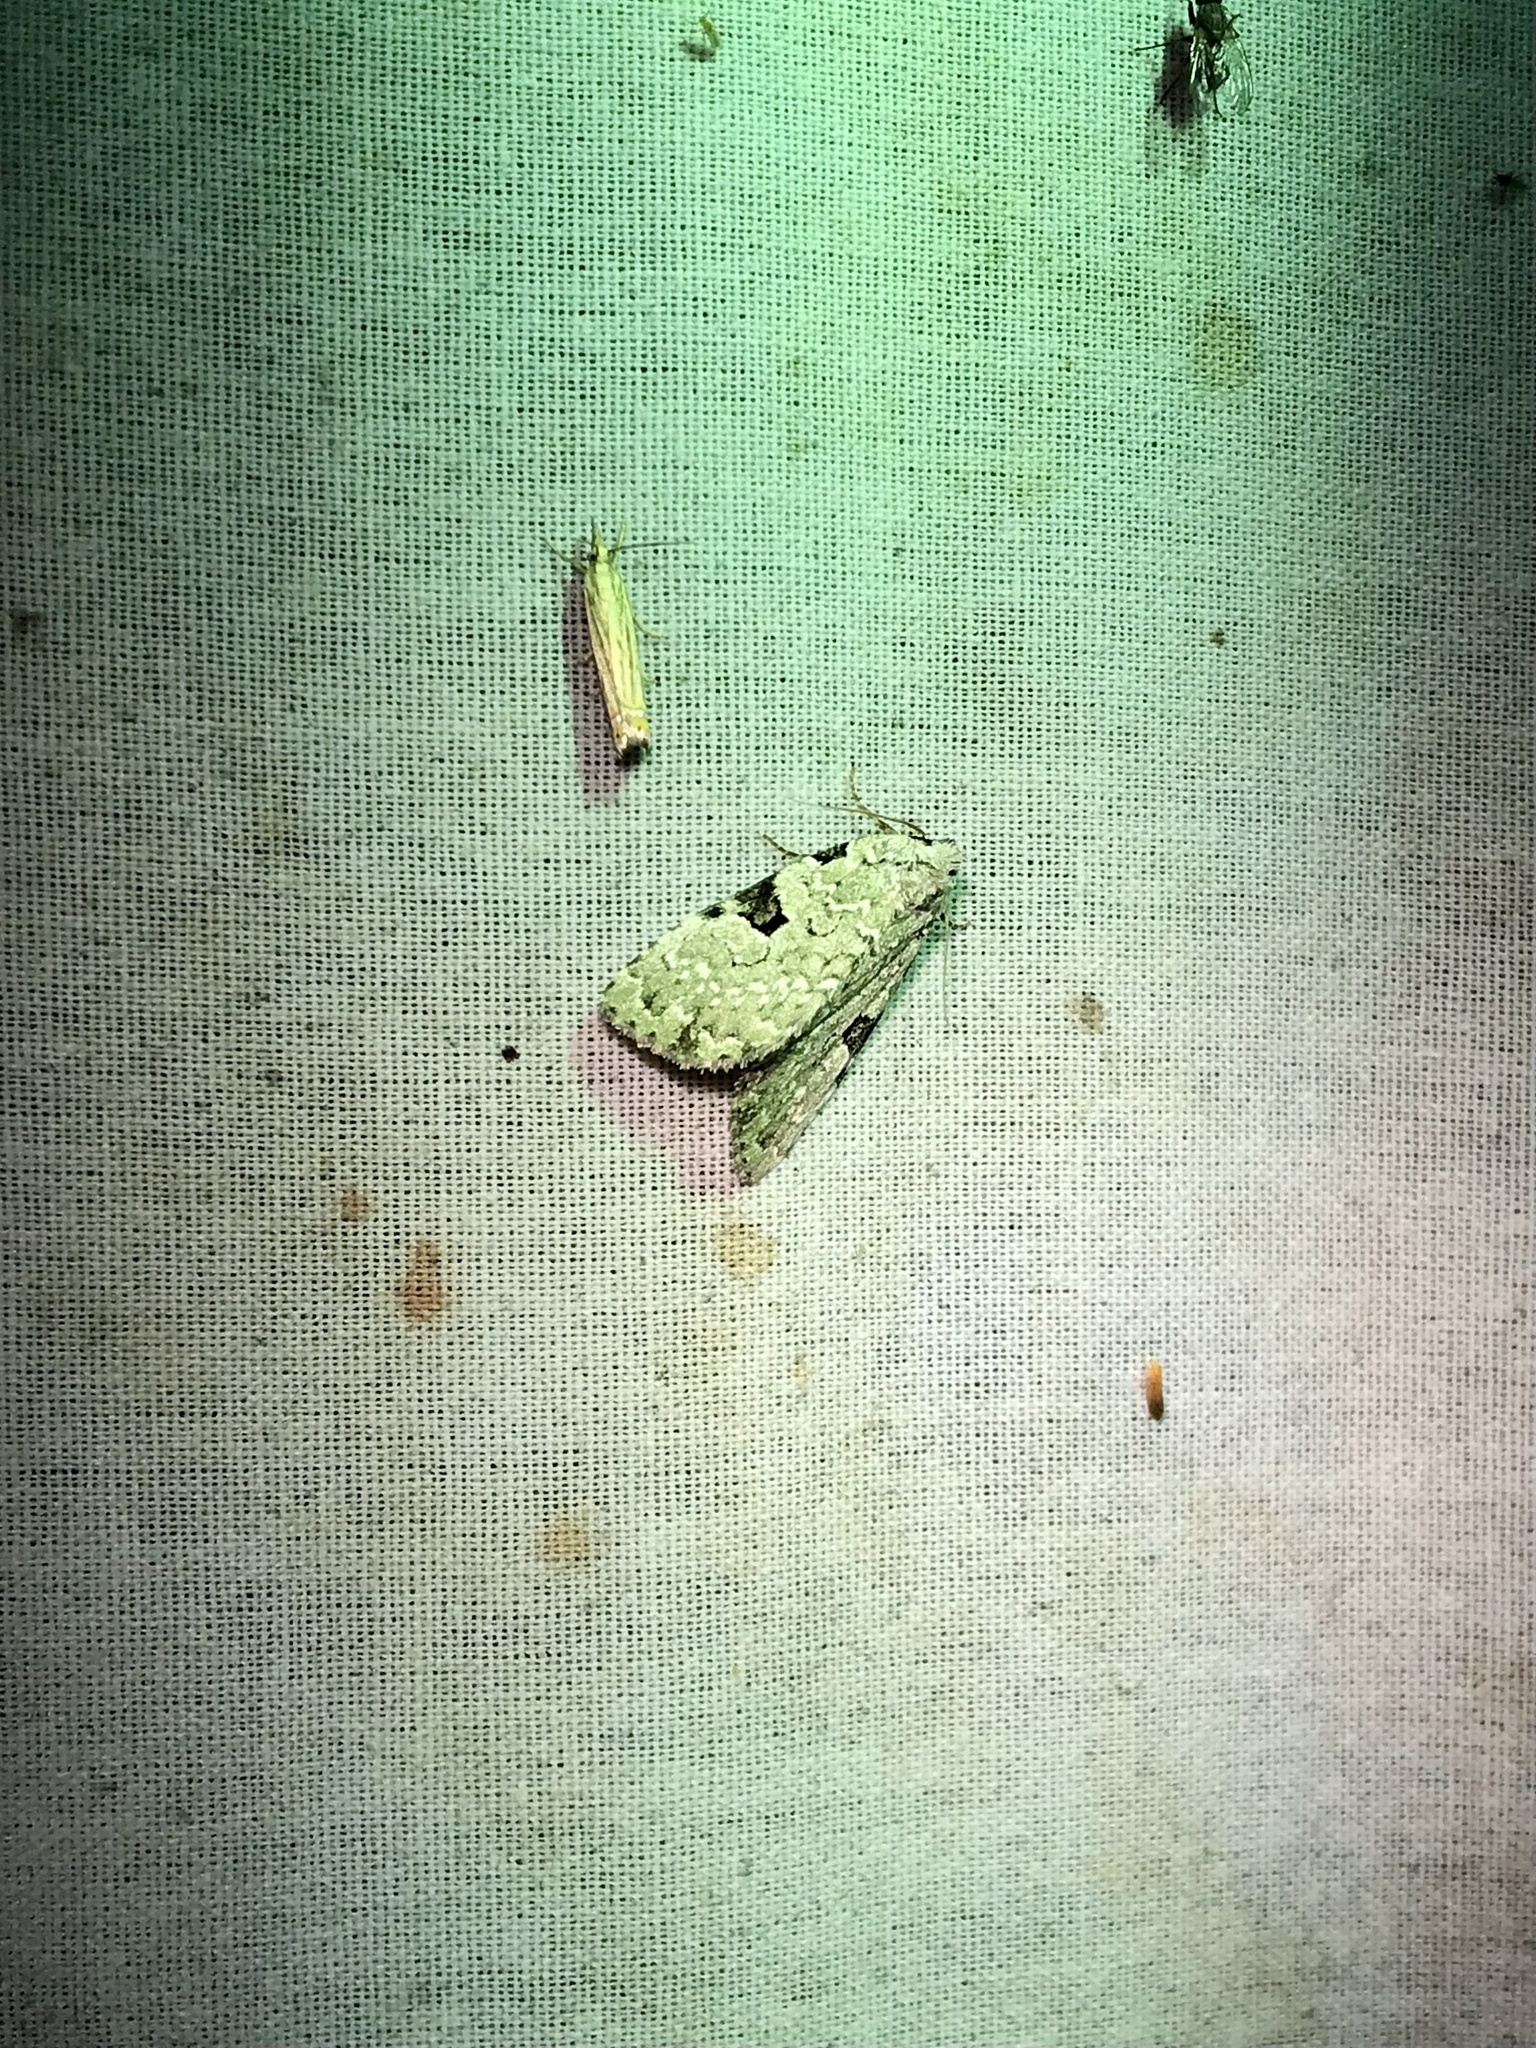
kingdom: Animalia
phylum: Arthropoda
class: Insecta
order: Lepidoptera
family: Noctuidae
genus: Leuconycta
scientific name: Leuconycta diphteroides
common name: Green leuconycta moth
